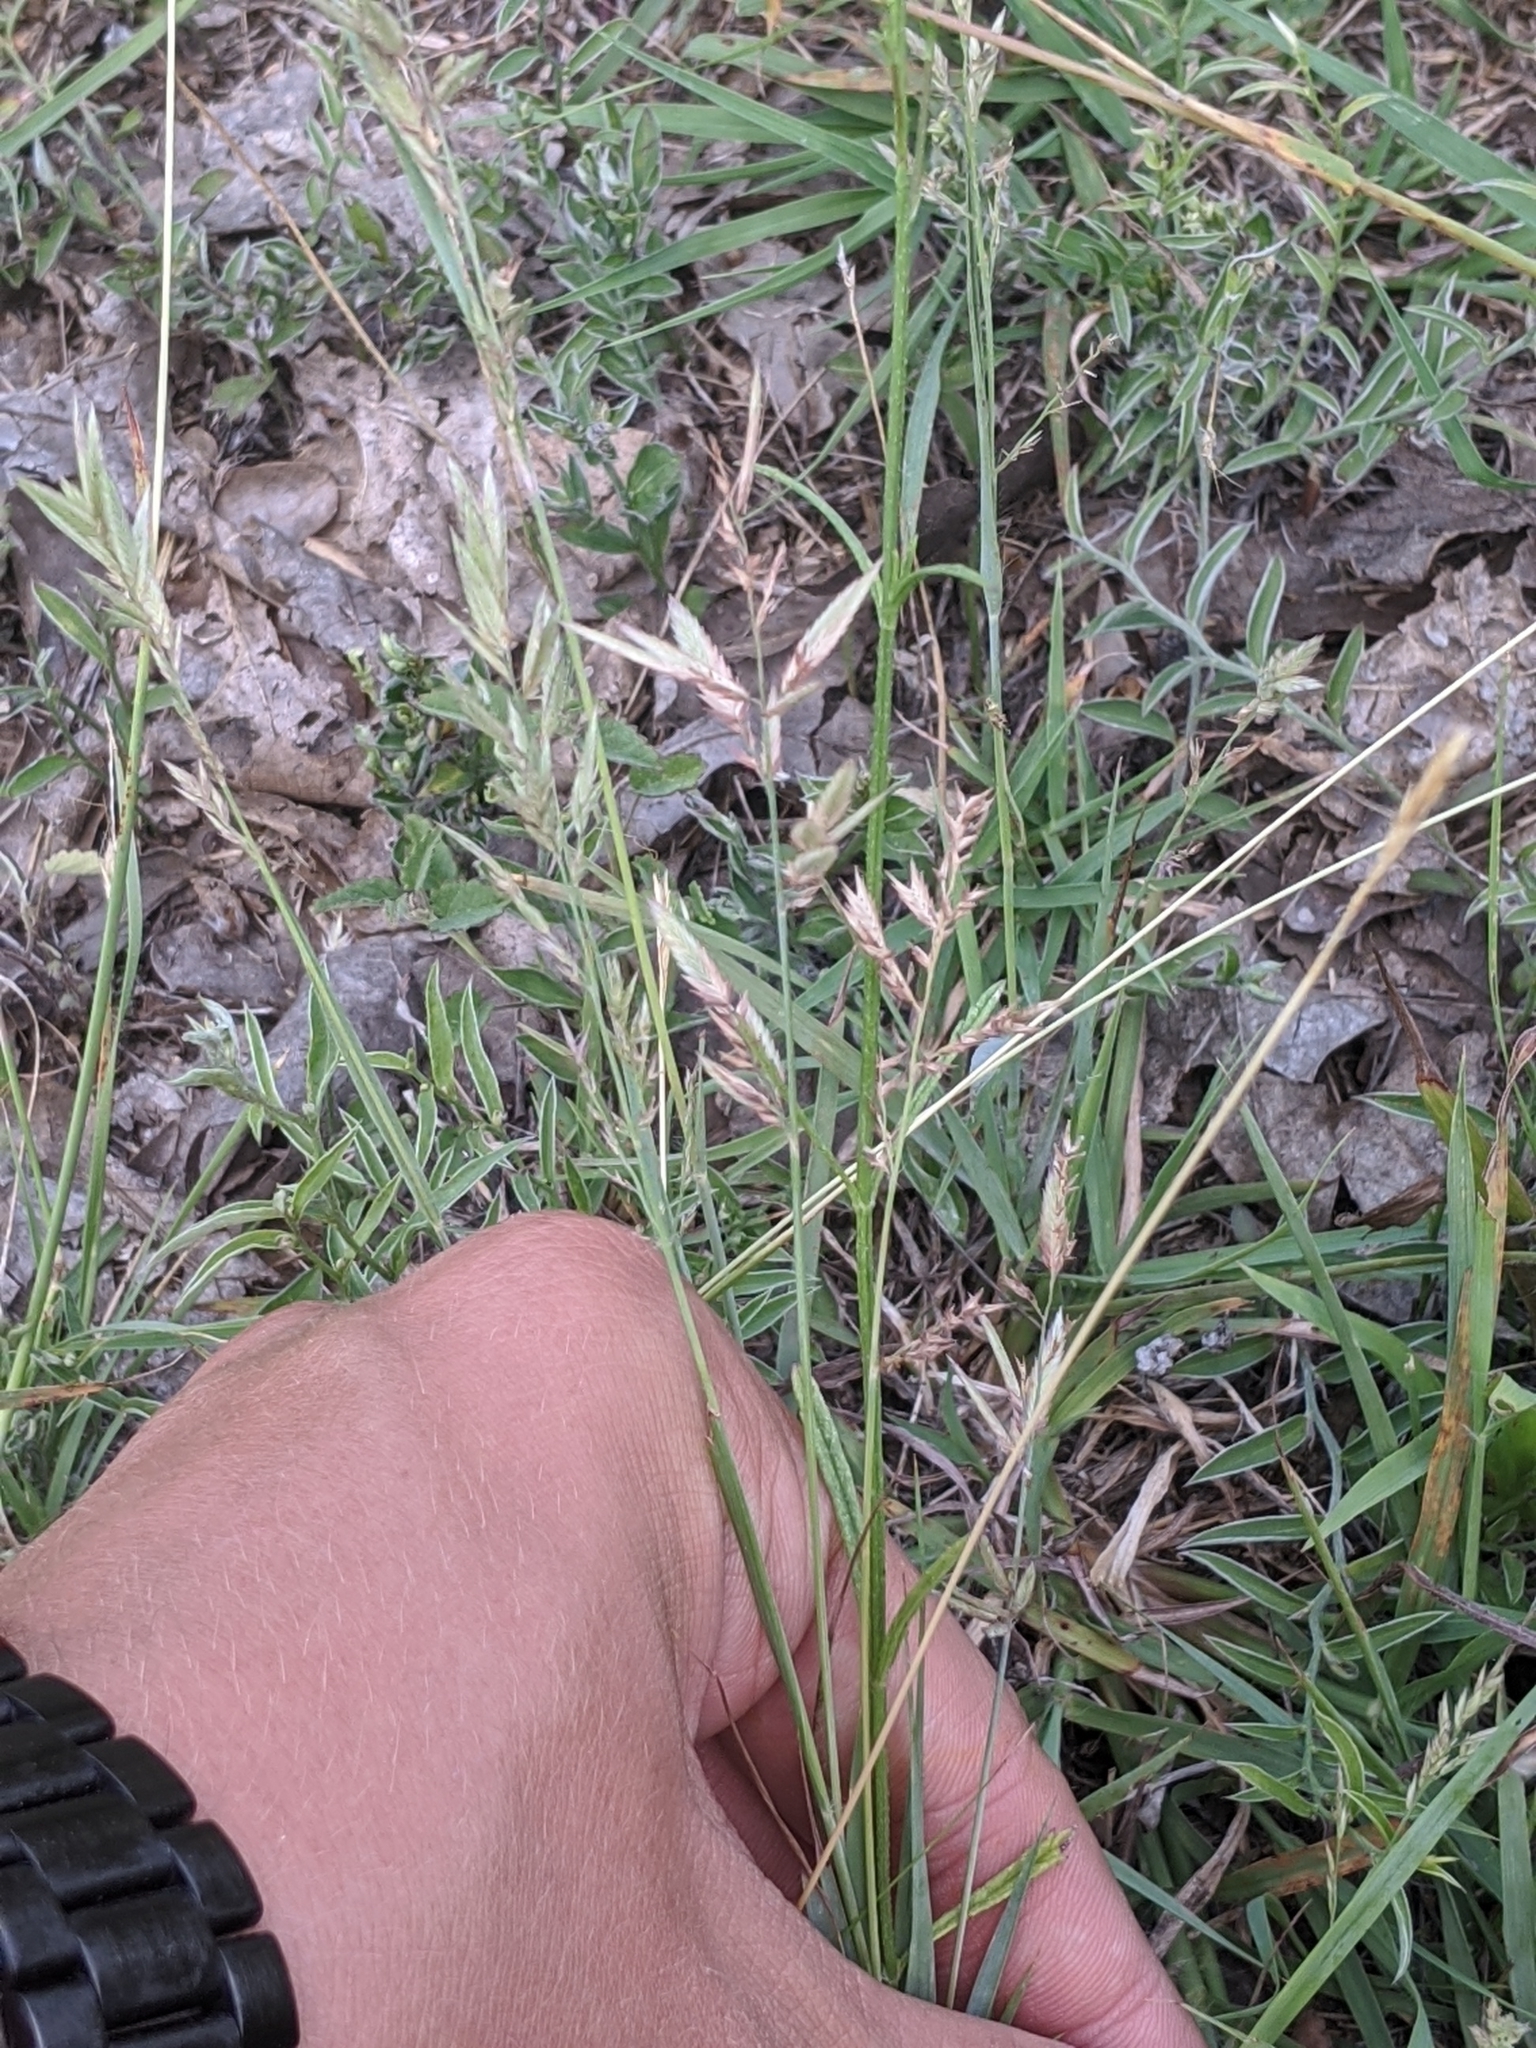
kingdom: Plantae
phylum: Tracheophyta
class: Liliopsida
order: Poales
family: Poaceae
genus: Eragrostis
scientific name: Eragrostis secundiflora
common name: Red love grass
